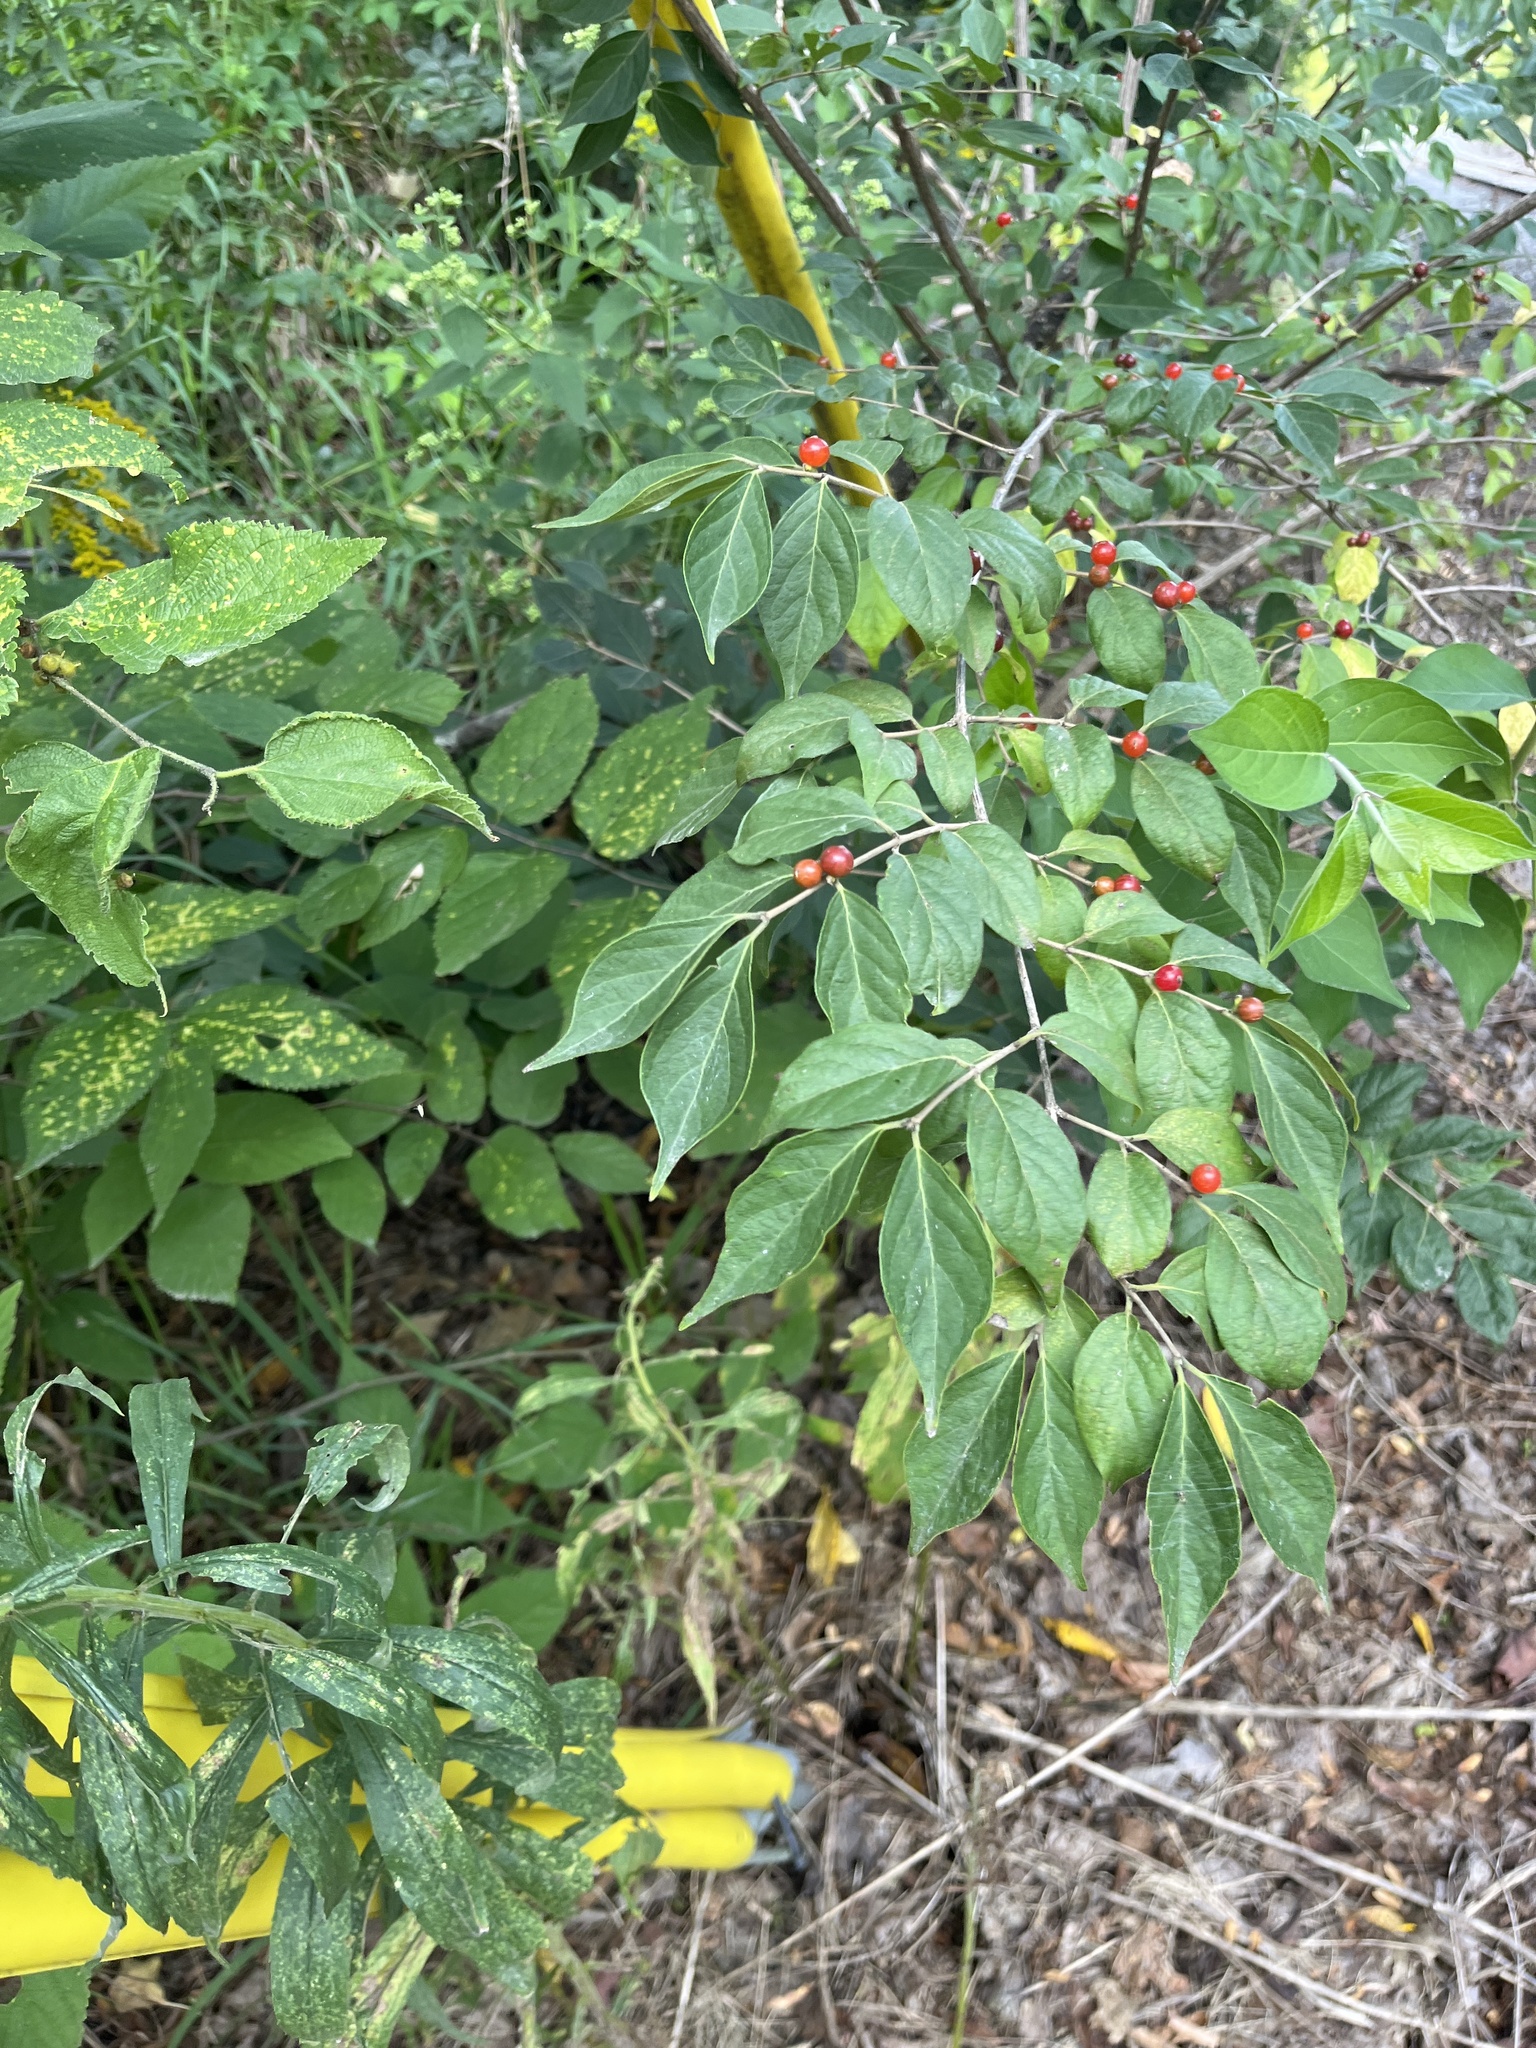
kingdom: Plantae
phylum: Tracheophyta
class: Magnoliopsida
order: Dipsacales
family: Caprifoliaceae
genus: Lonicera
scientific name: Lonicera maackii
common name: Amur honeysuckle
